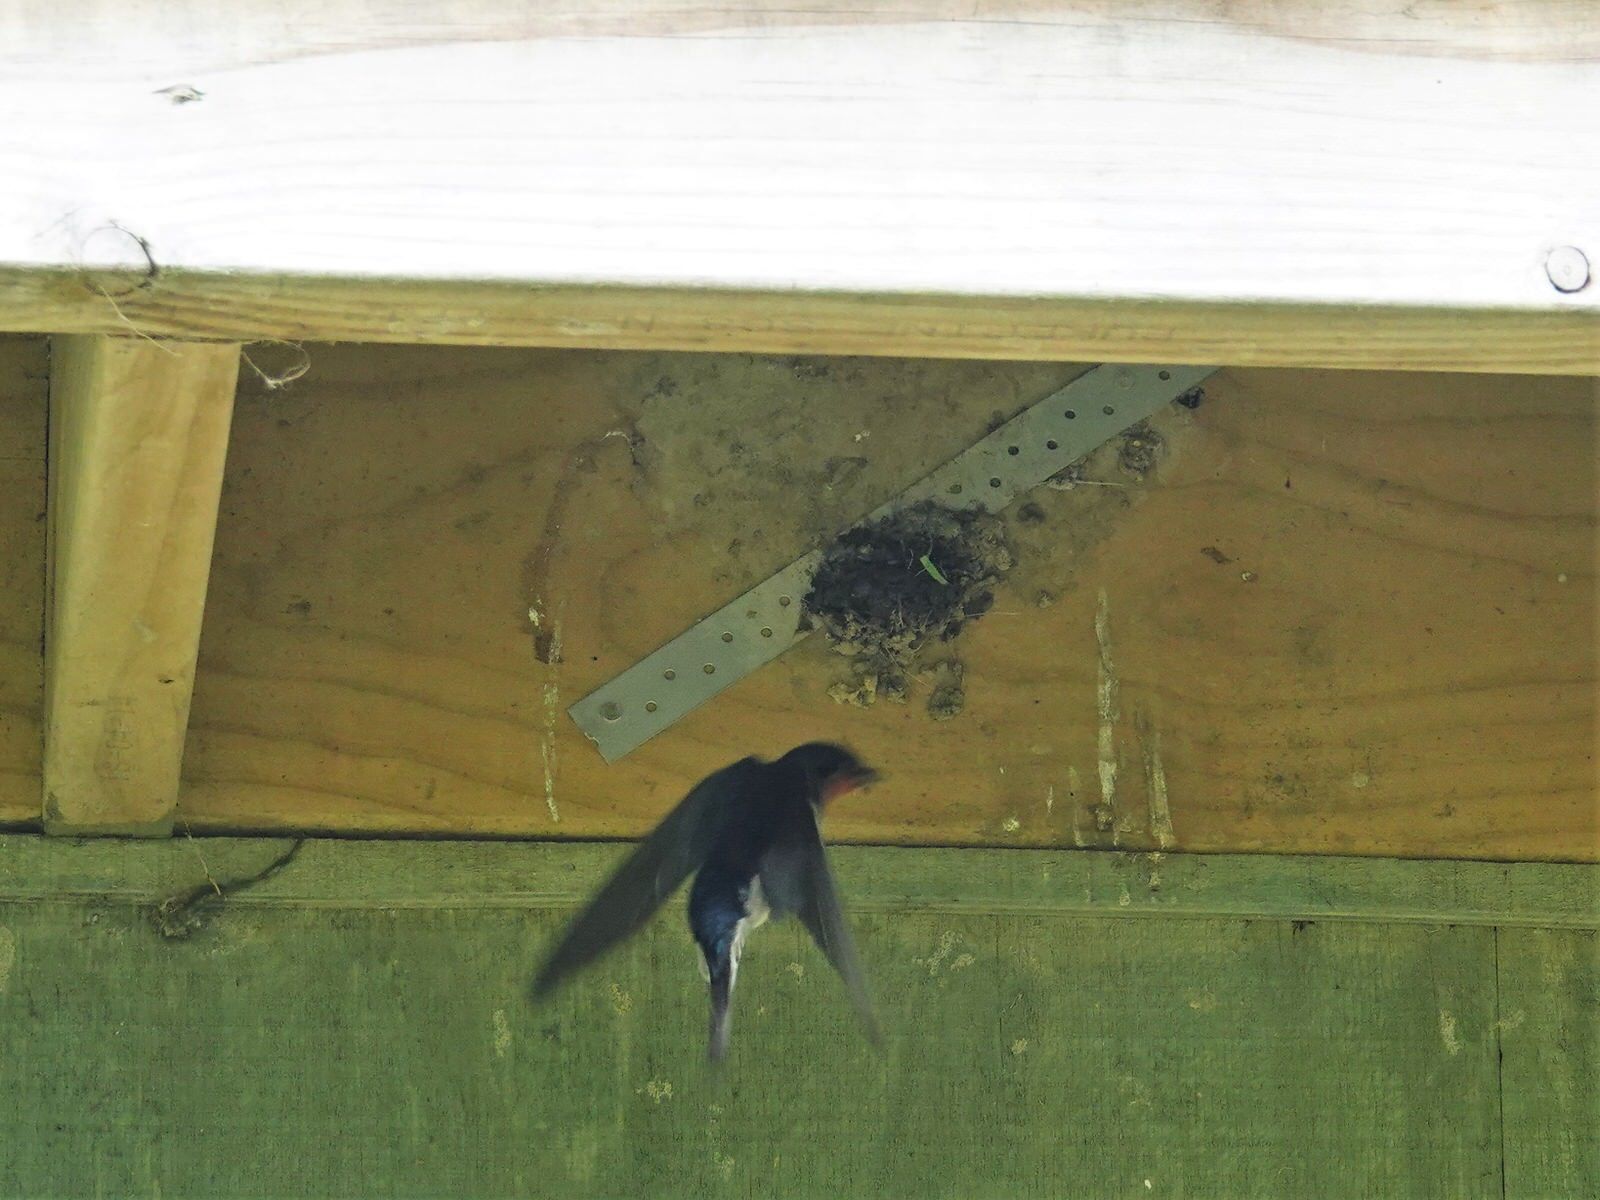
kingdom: Animalia
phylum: Chordata
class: Aves
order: Passeriformes
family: Hirundinidae
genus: Hirundo
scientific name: Hirundo neoxena
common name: Welcome swallow
